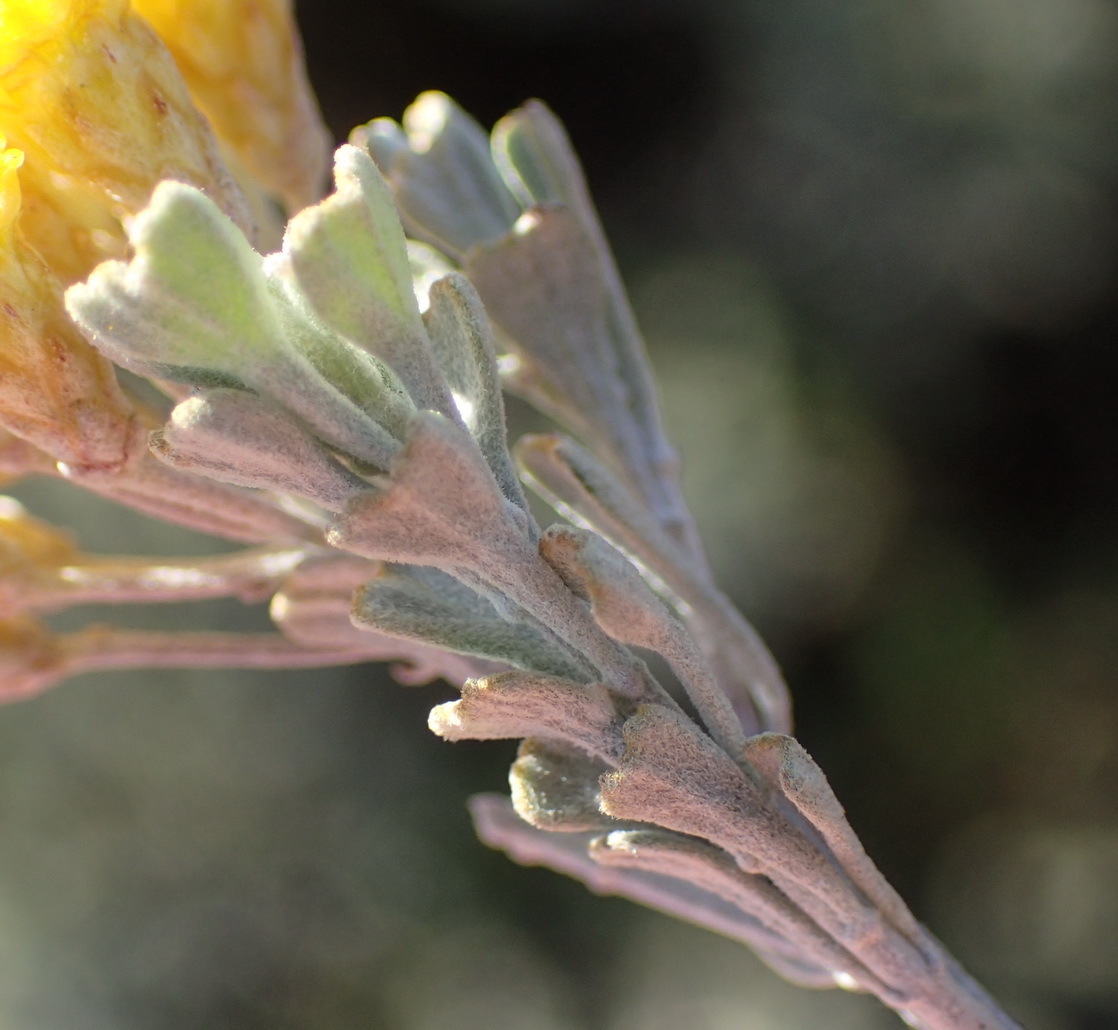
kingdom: Plantae
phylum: Tracheophyta
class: Magnoliopsida
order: Asterales
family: Asteraceae
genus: Pentzia
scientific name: Pentzia dentata
